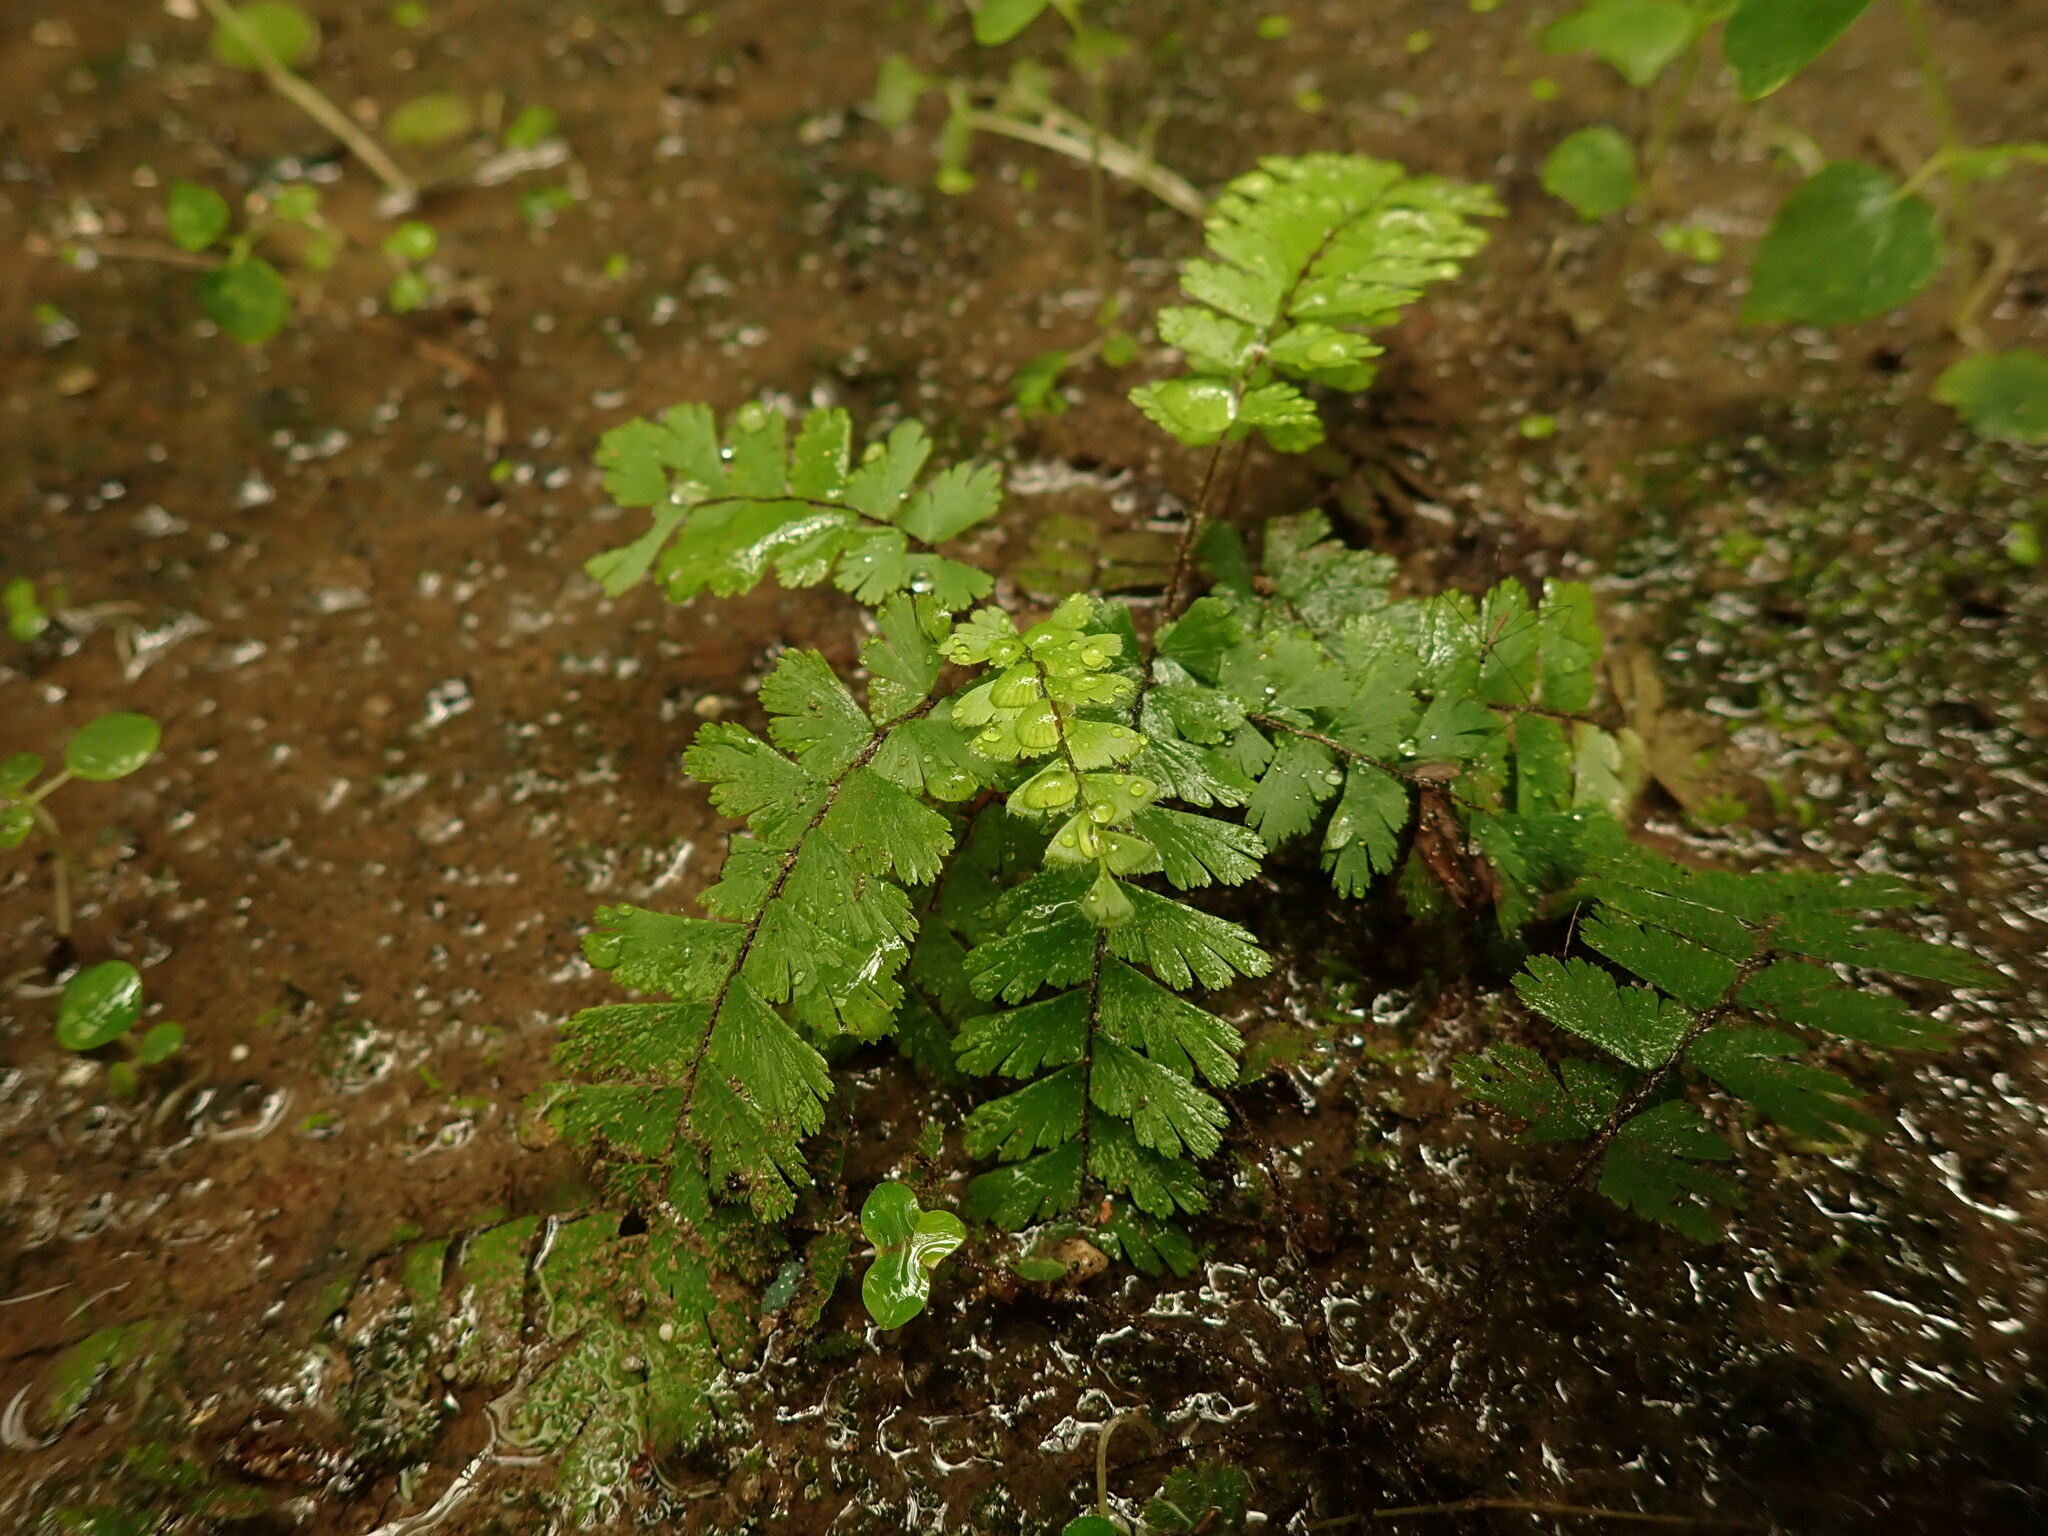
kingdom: Plantae
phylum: Tracheophyta
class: Polypodiopsida
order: Polypodiales
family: Pteridaceae
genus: Adiantum
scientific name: Adiantum caudatum
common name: Tailed maidenhair
